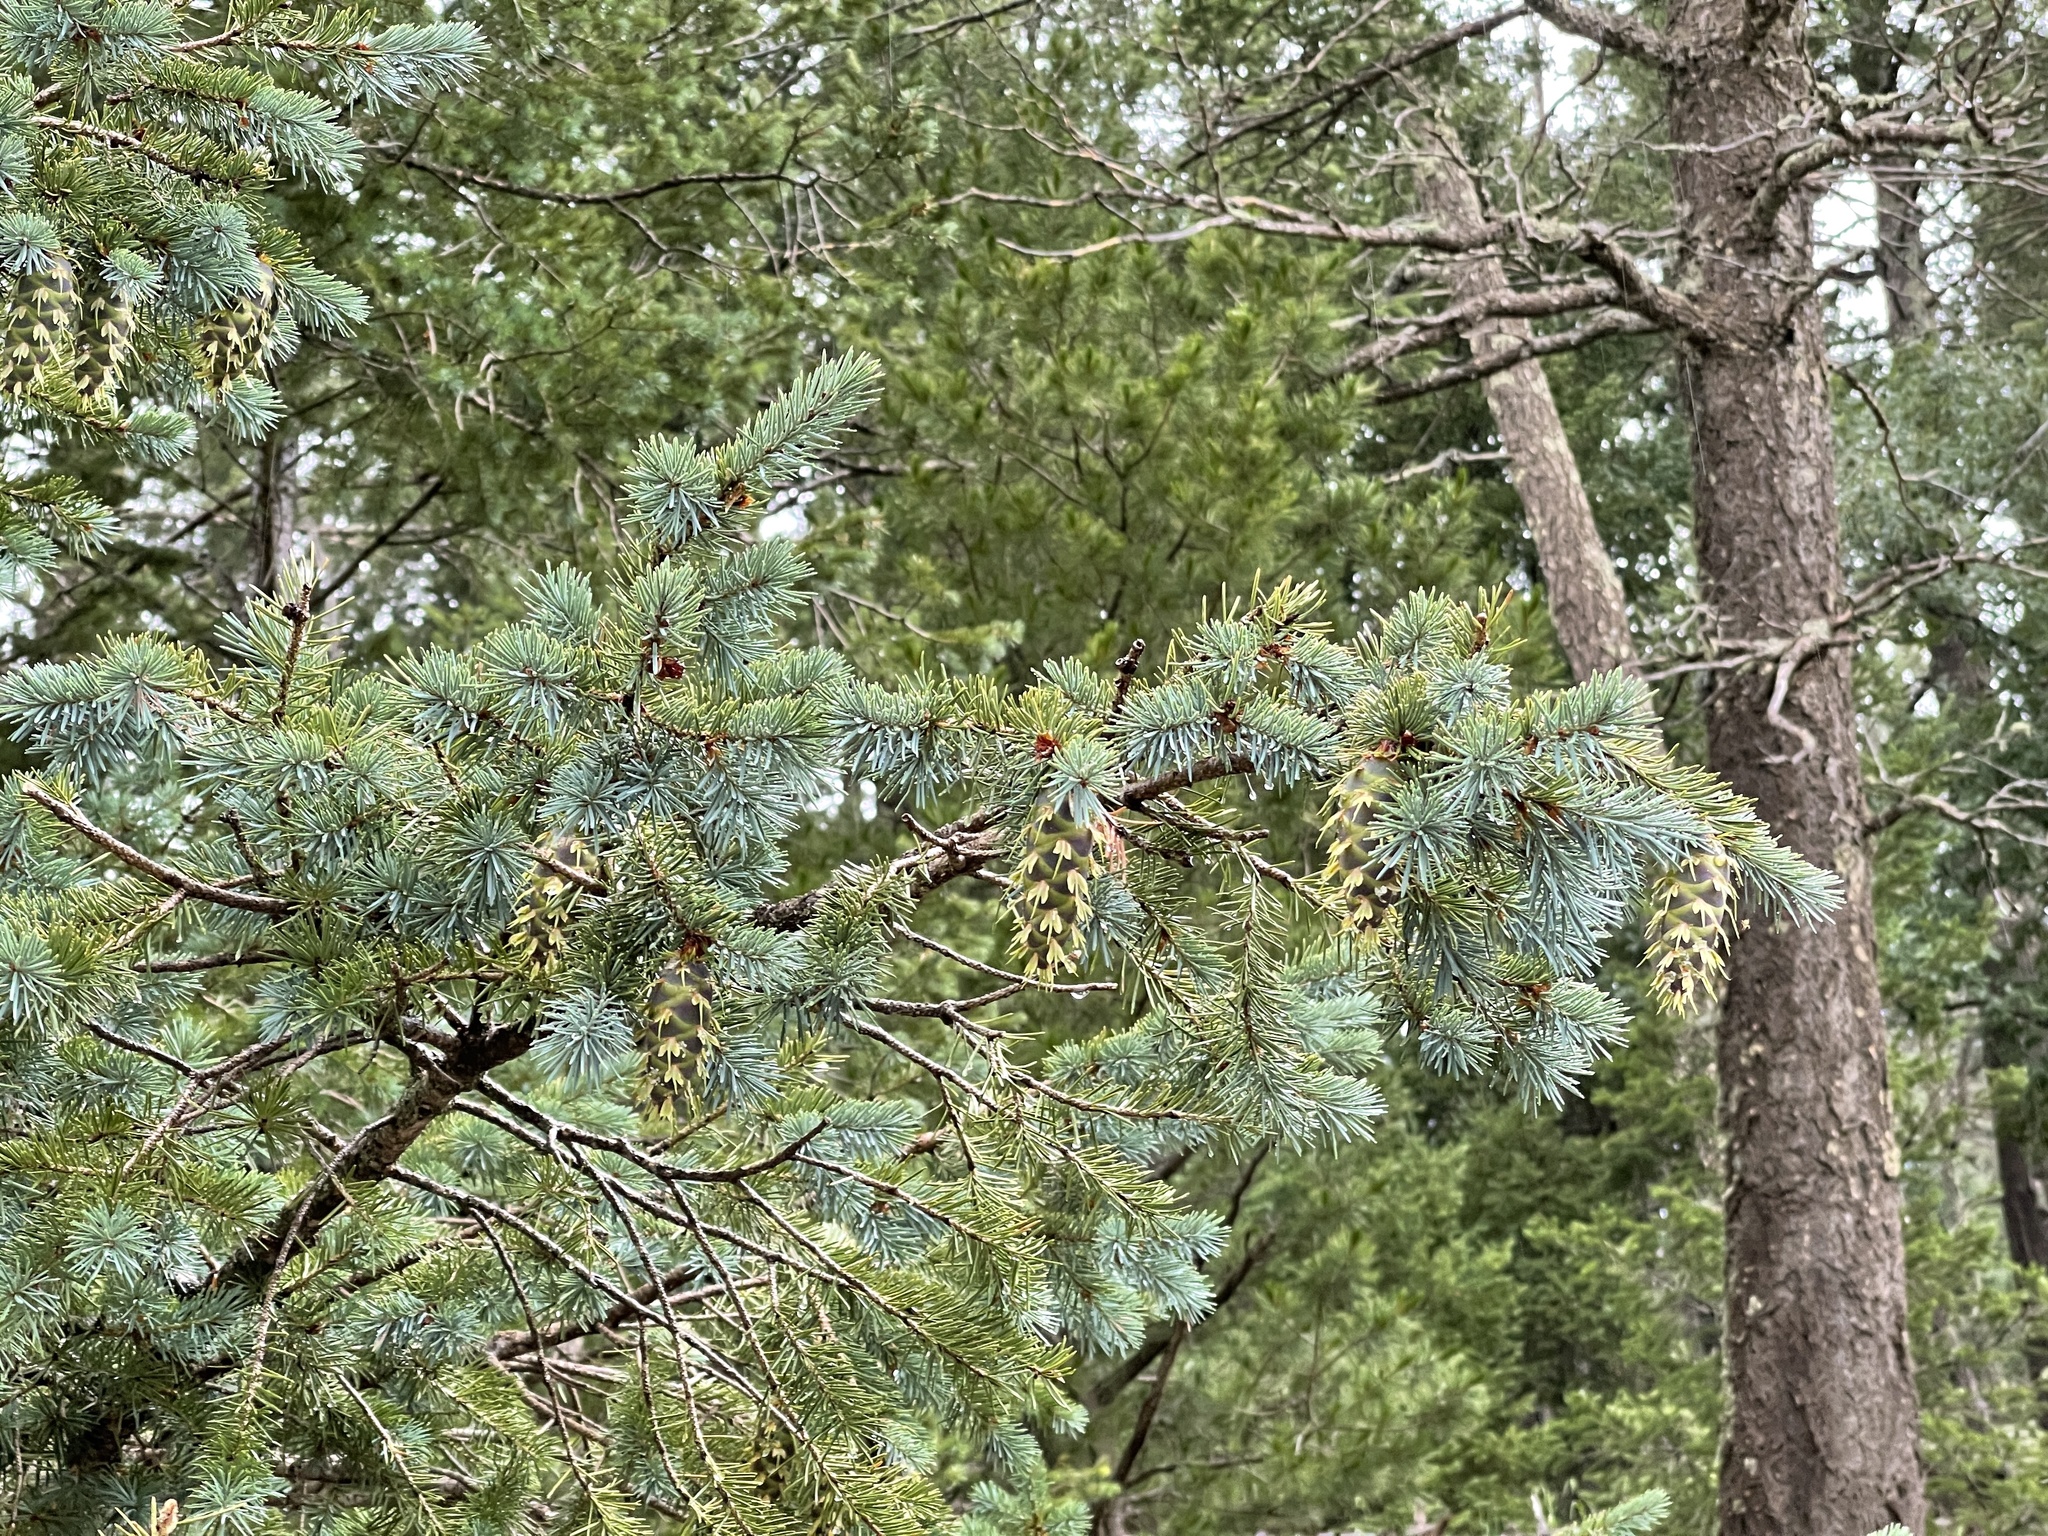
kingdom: Plantae
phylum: Tracheophyta
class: Pinopsida
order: Pinales
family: Pinaceae
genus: Pseudotsuga
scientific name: Pseudotsuga menziesii
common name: Douglas fir
